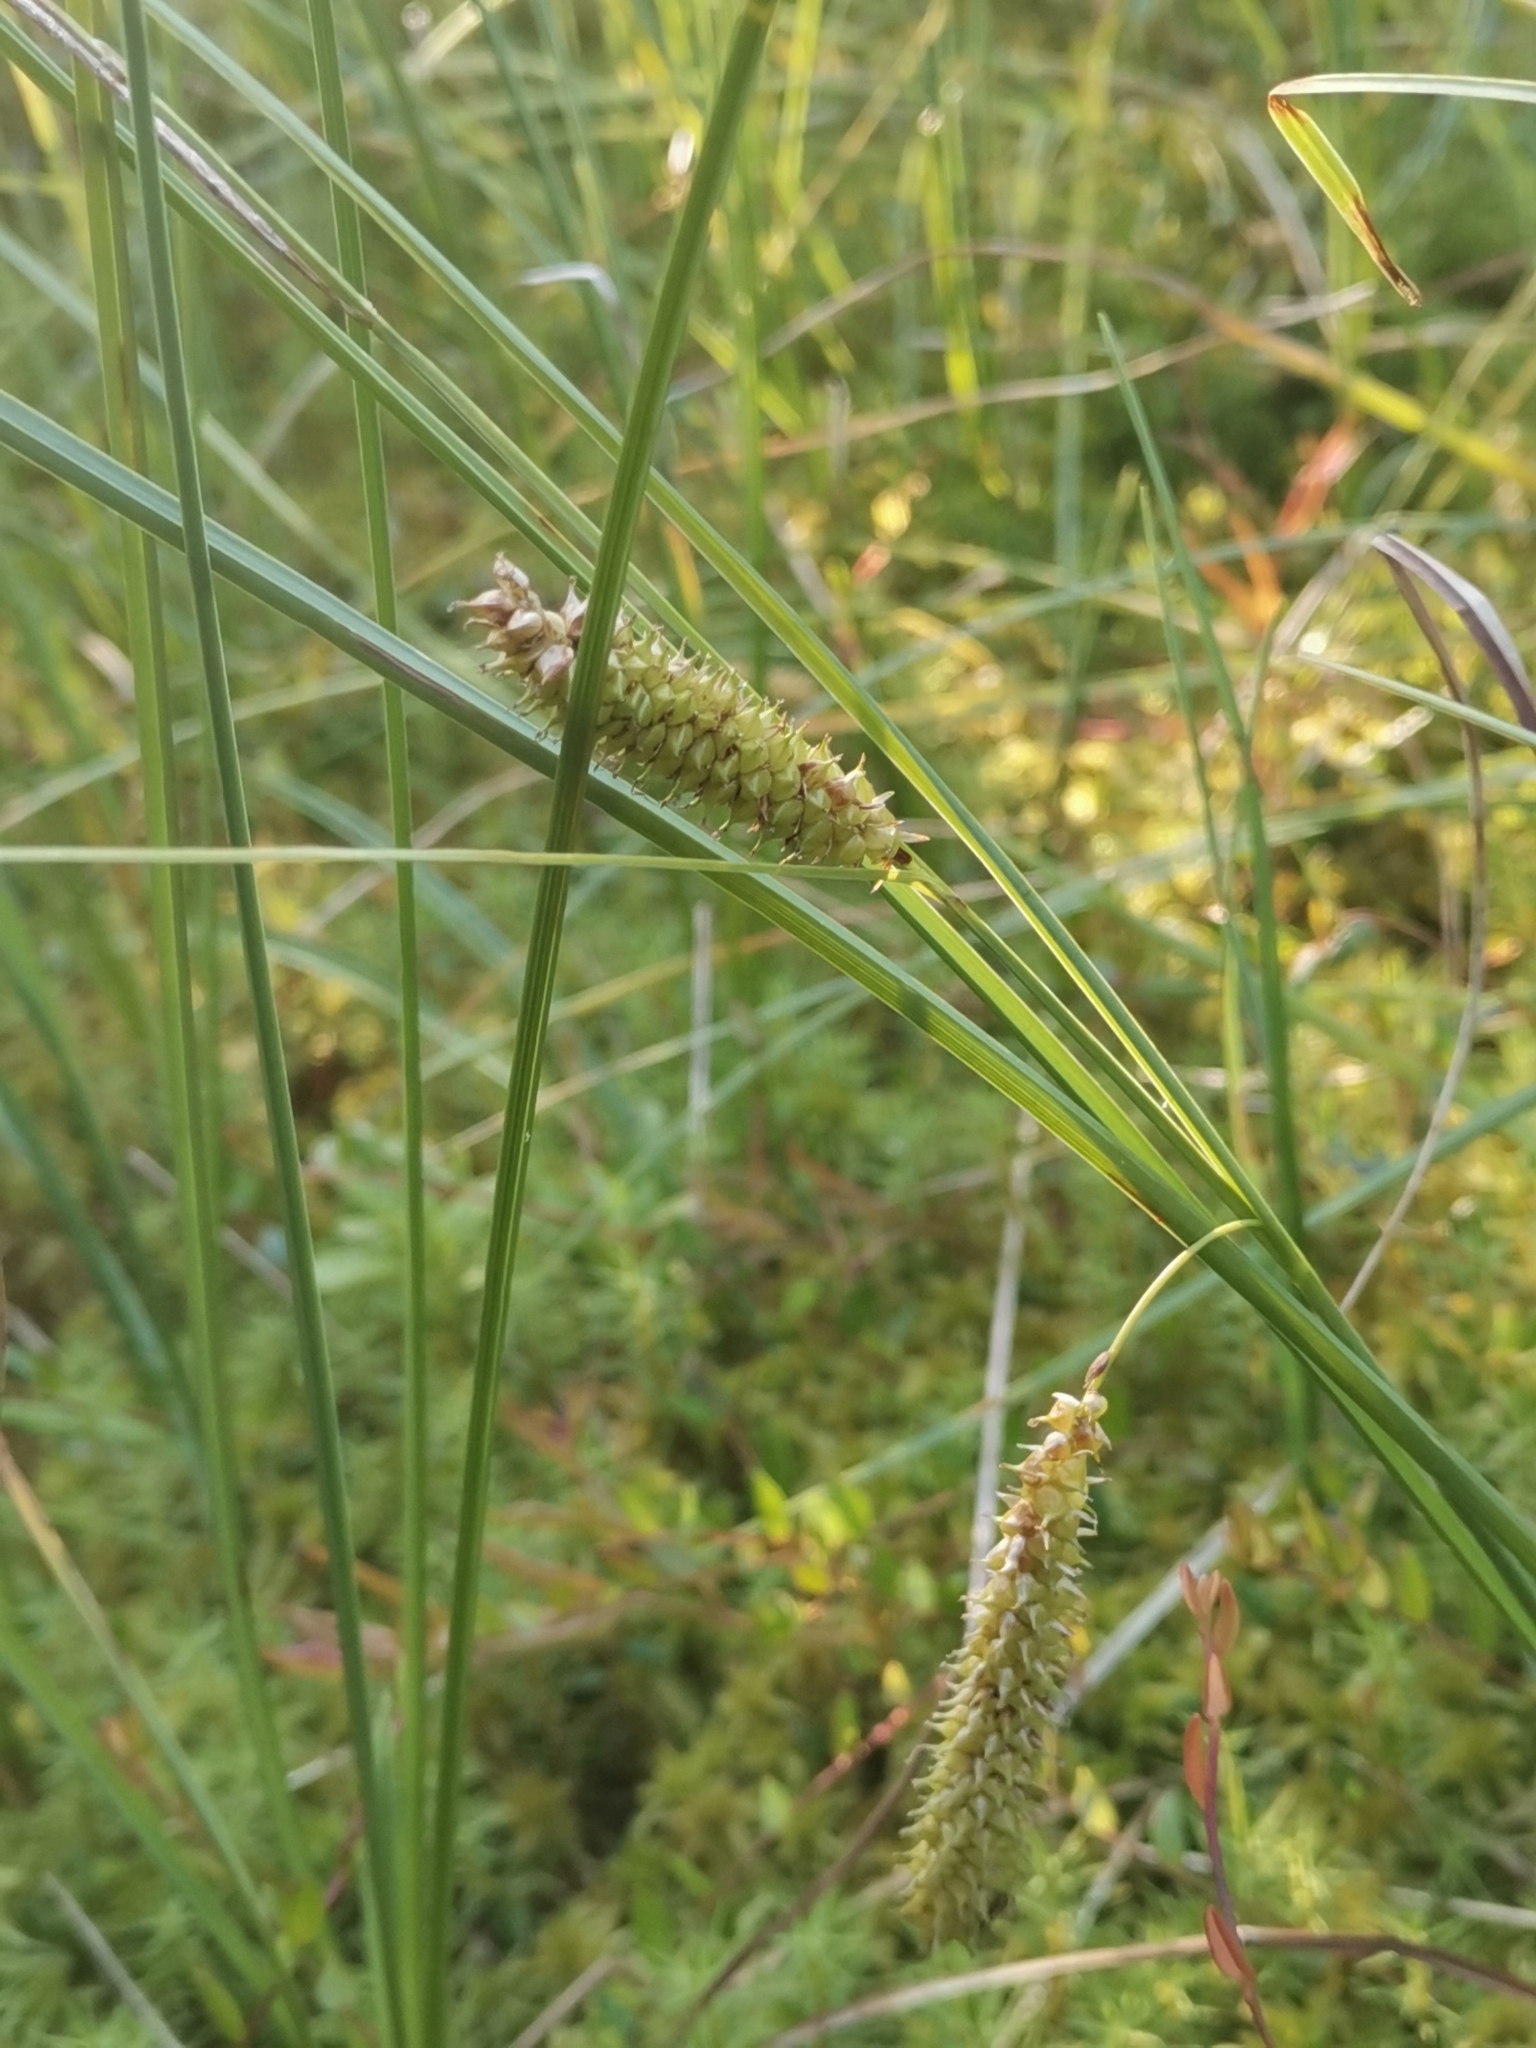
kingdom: Plantae
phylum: Tracheophyta
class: Liliopsida
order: Poales
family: Cyperaceae
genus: Carex
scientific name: Carex rostrata
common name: Bottle sedge
